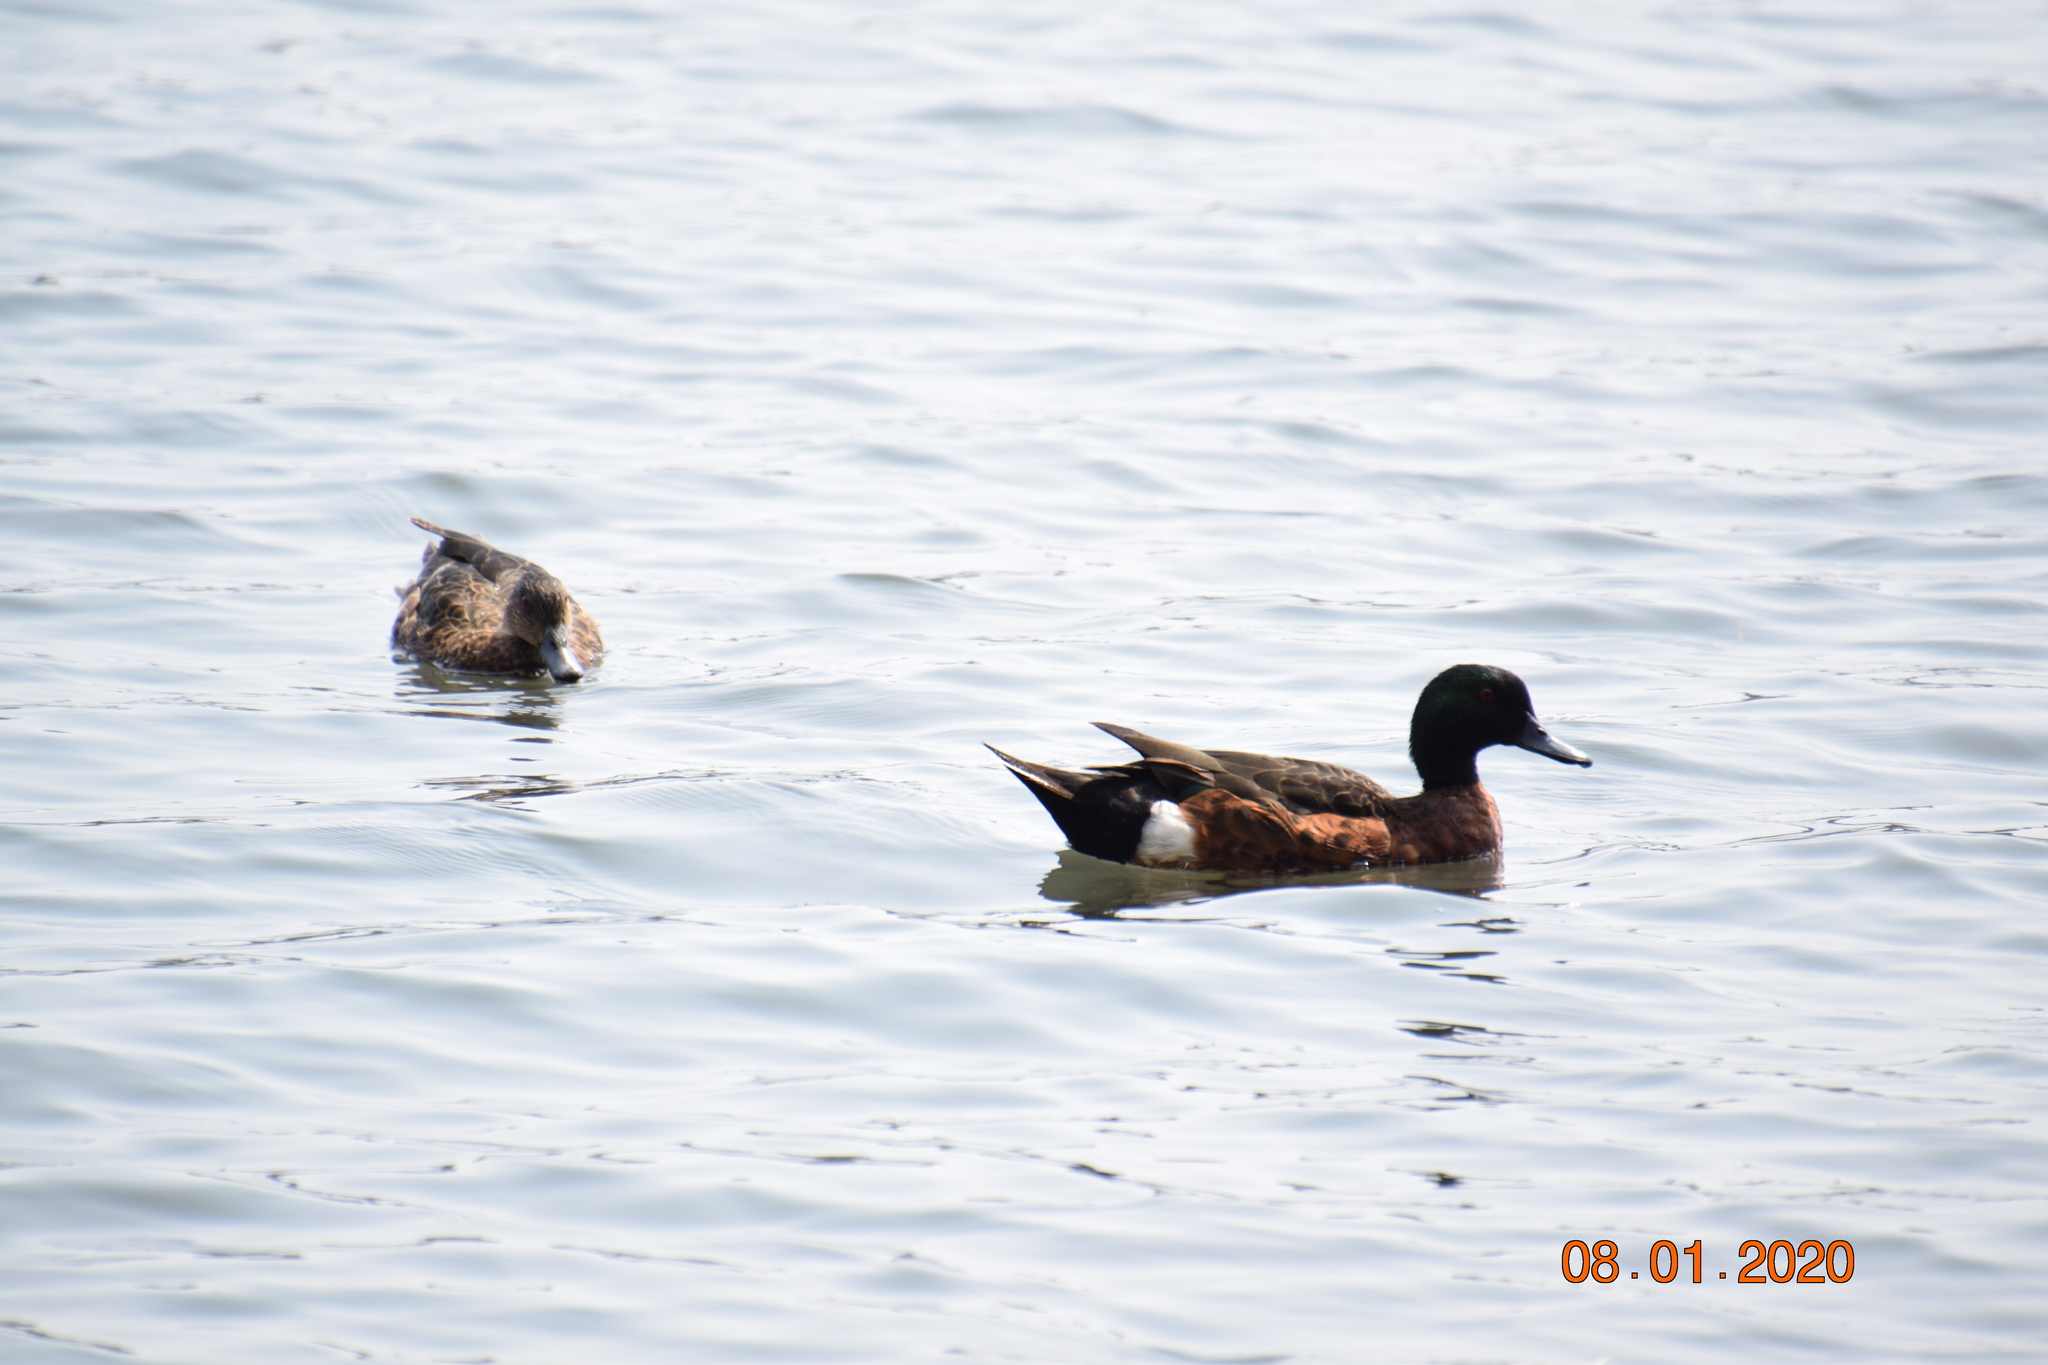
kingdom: Animalia
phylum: Chordata
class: Aves
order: Anseriformes
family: Anatidae
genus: Anas
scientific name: Anas castanea
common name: Chestnut teal
